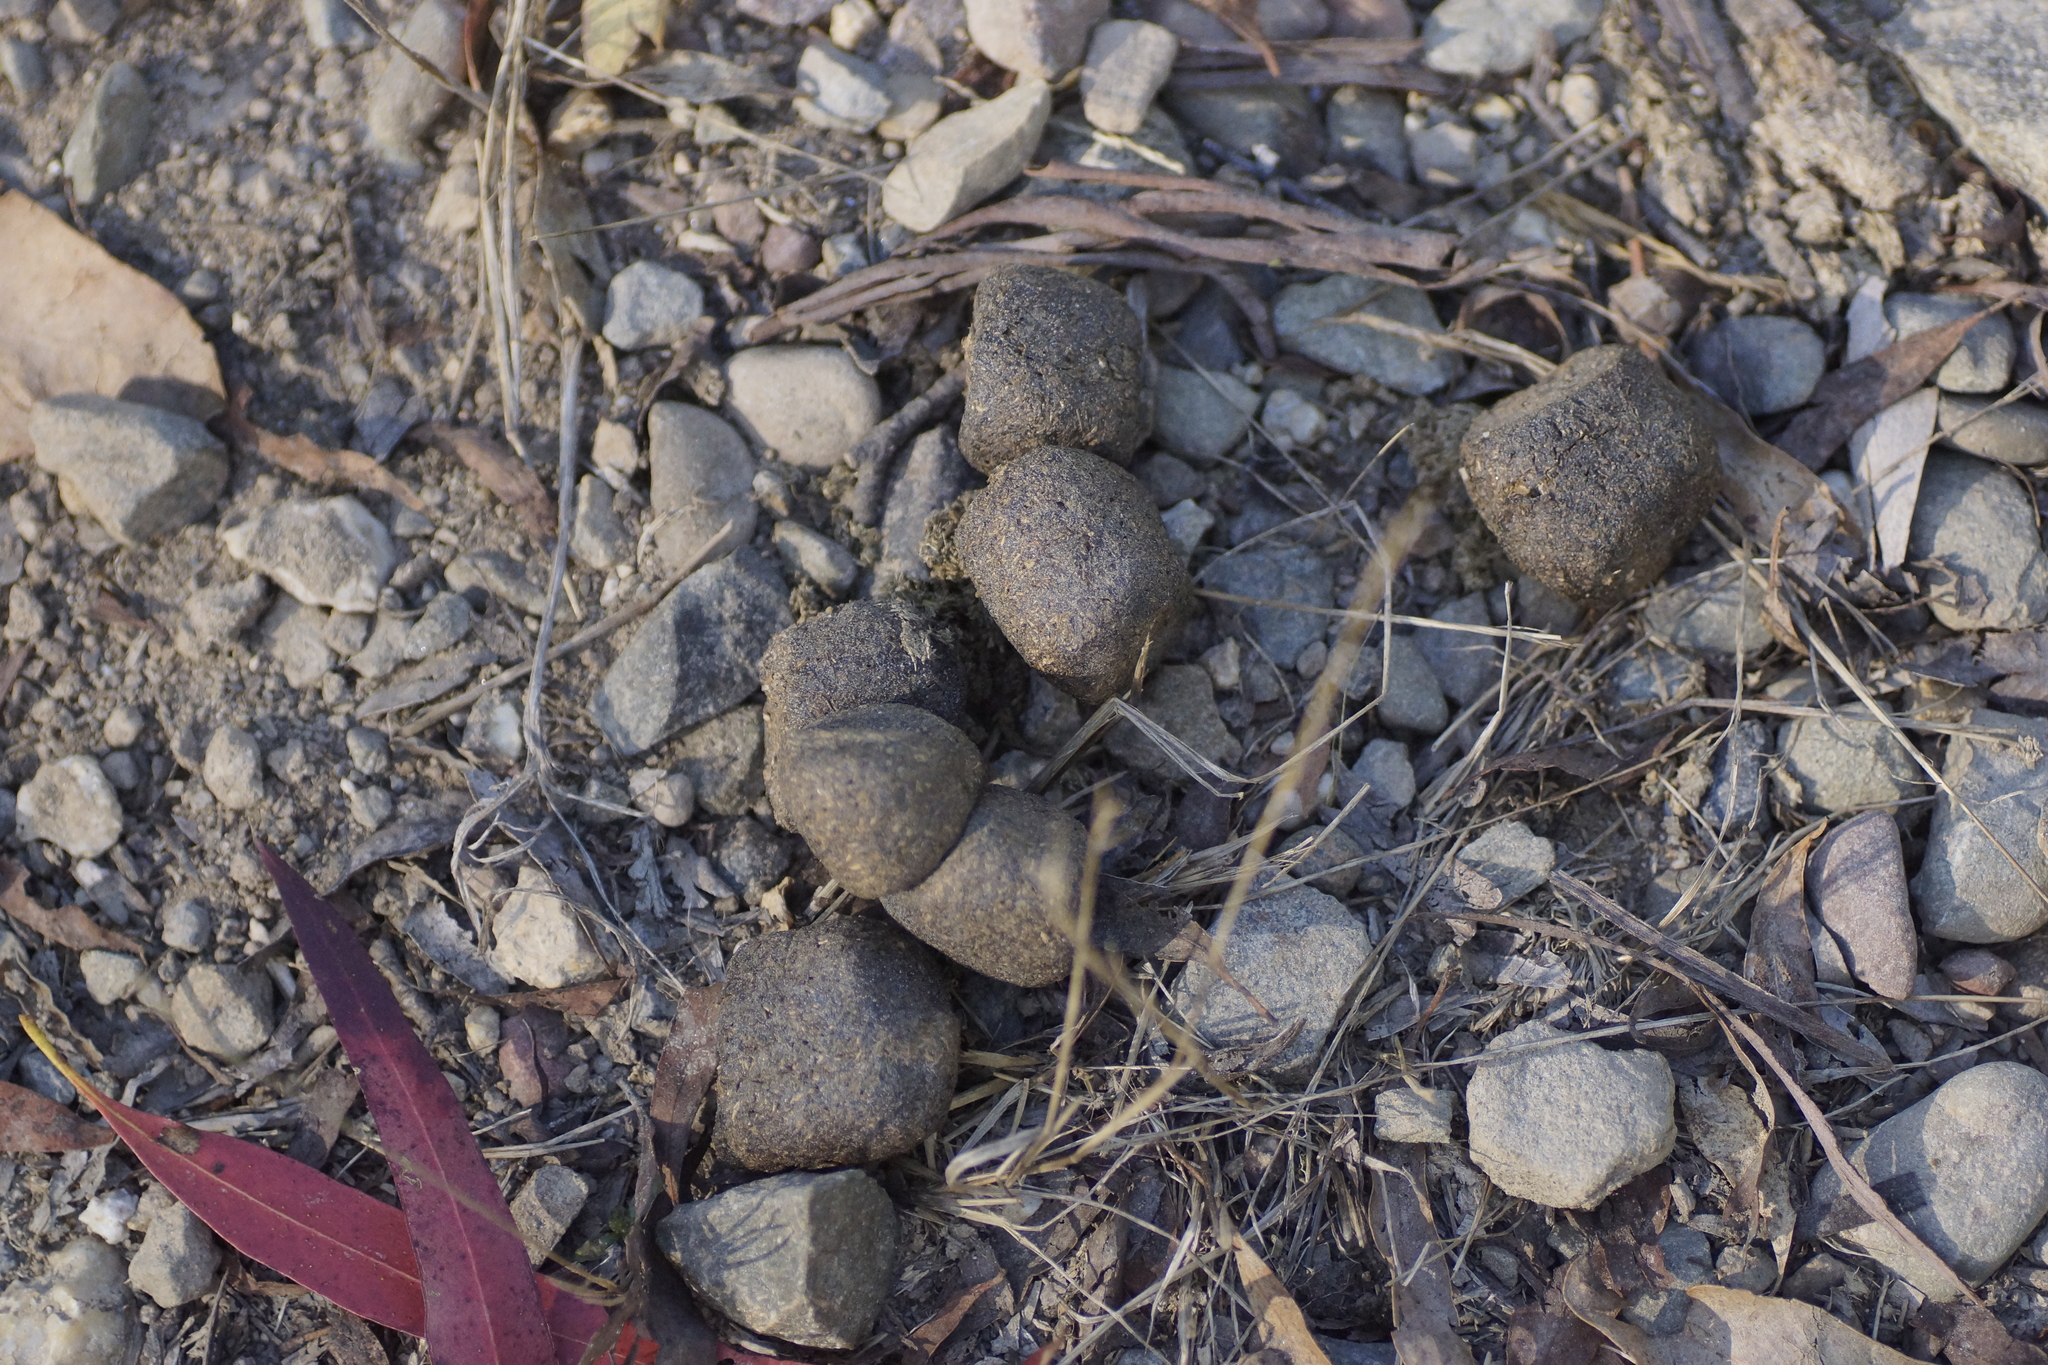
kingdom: Animalia
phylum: Chordata
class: Mammalia
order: Diprotodontia
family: Vombatidae
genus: Vombatus
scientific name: Vombatus ursinus
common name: Common wombat
